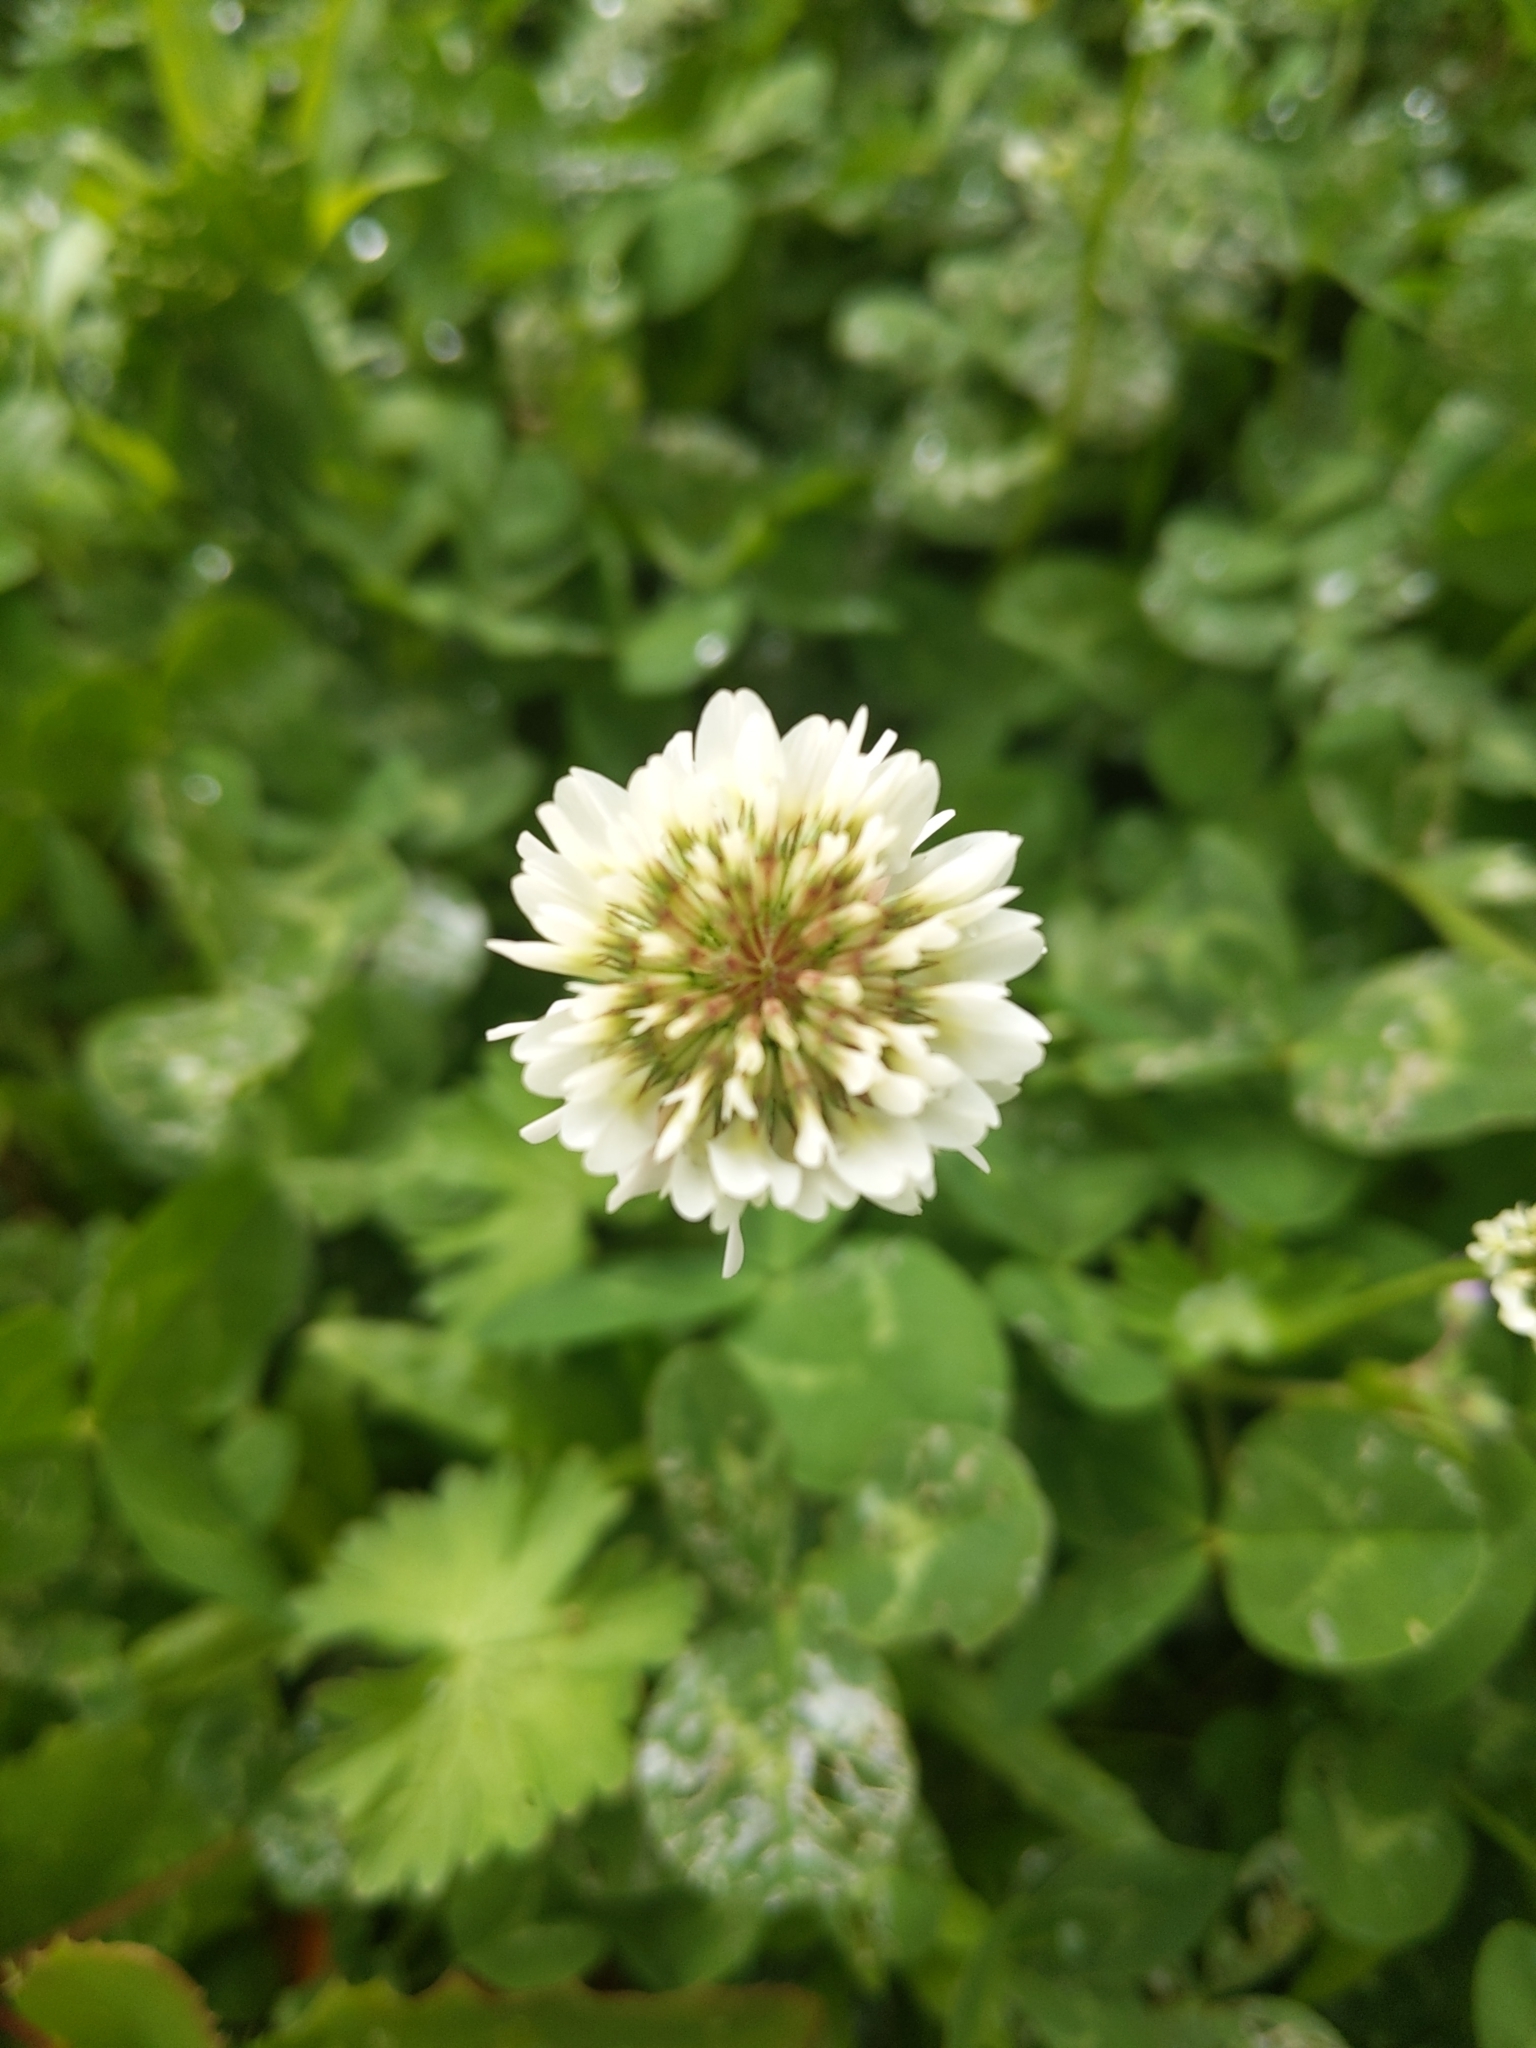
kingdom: Plantae
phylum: Tracheophyta
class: Magnoliopsida
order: Fabales
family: Fabaceae
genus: Trifolium
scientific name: Trifolium repens
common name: White clover
